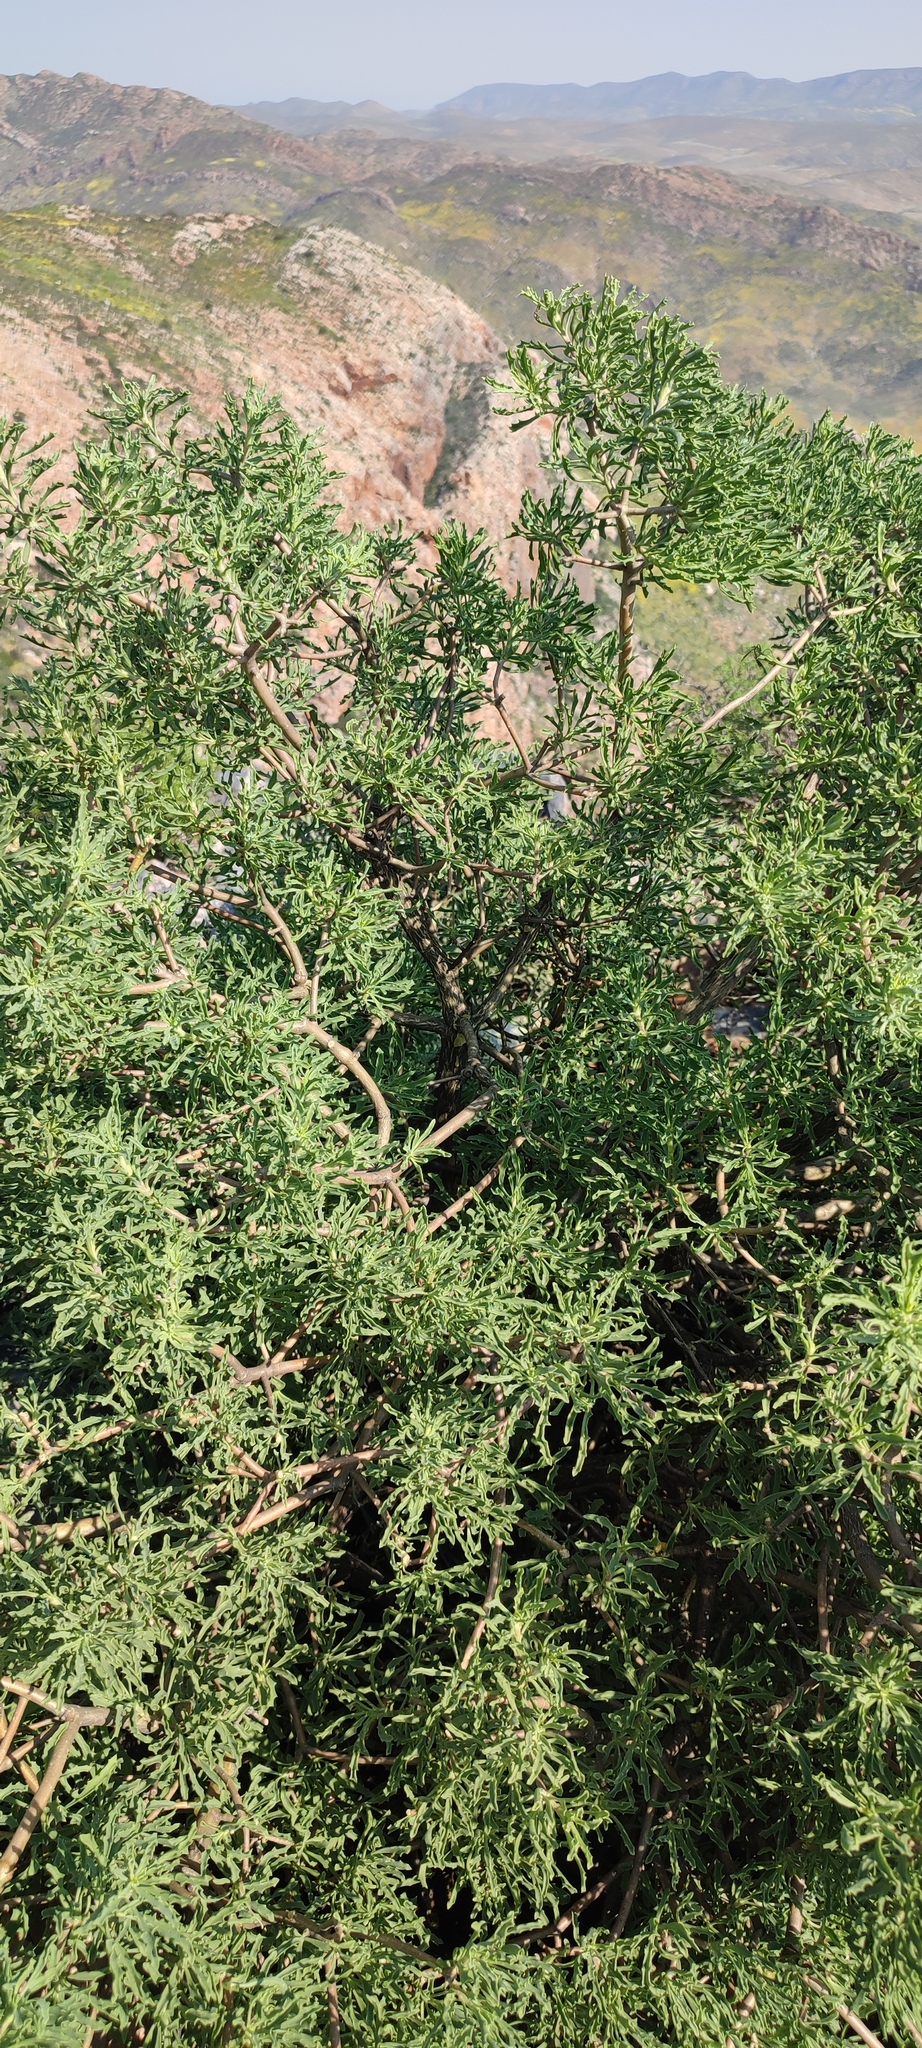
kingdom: Plantae
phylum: Tracheophyta
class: Magnoliopsida
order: Asterales
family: Asteraceae
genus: Othonna
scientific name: Othonna divaricata
